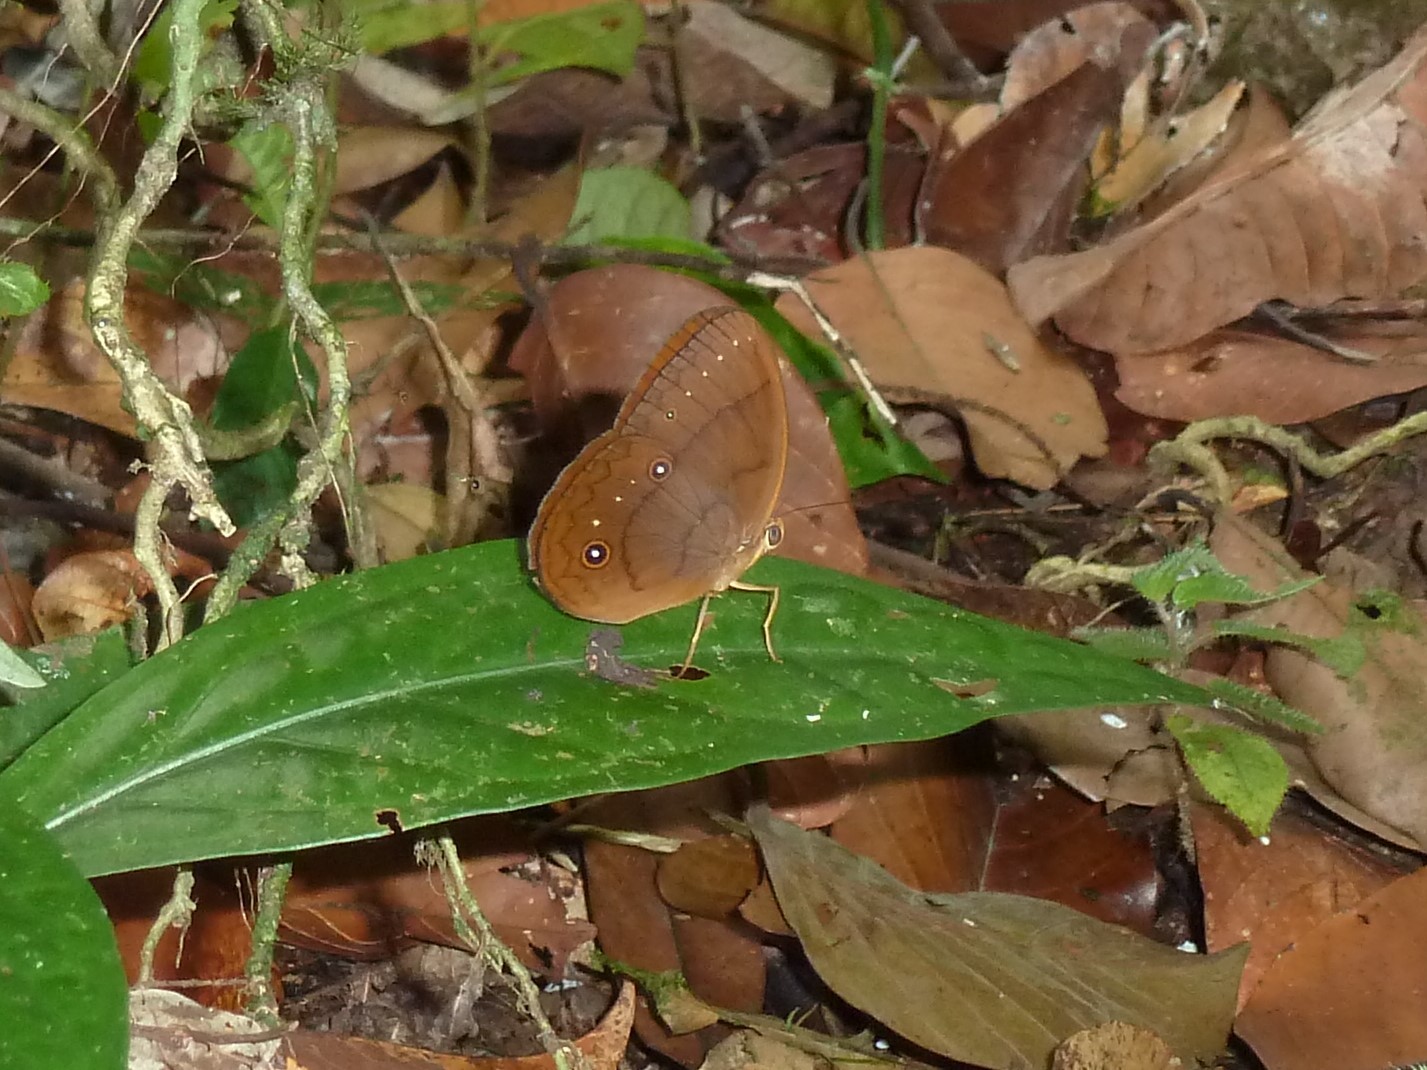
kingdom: Animalia
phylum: Arthropoda
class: Insecta
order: Lepidoptera
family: Nymphalidae
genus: Faunis
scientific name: Faunis gracilis
